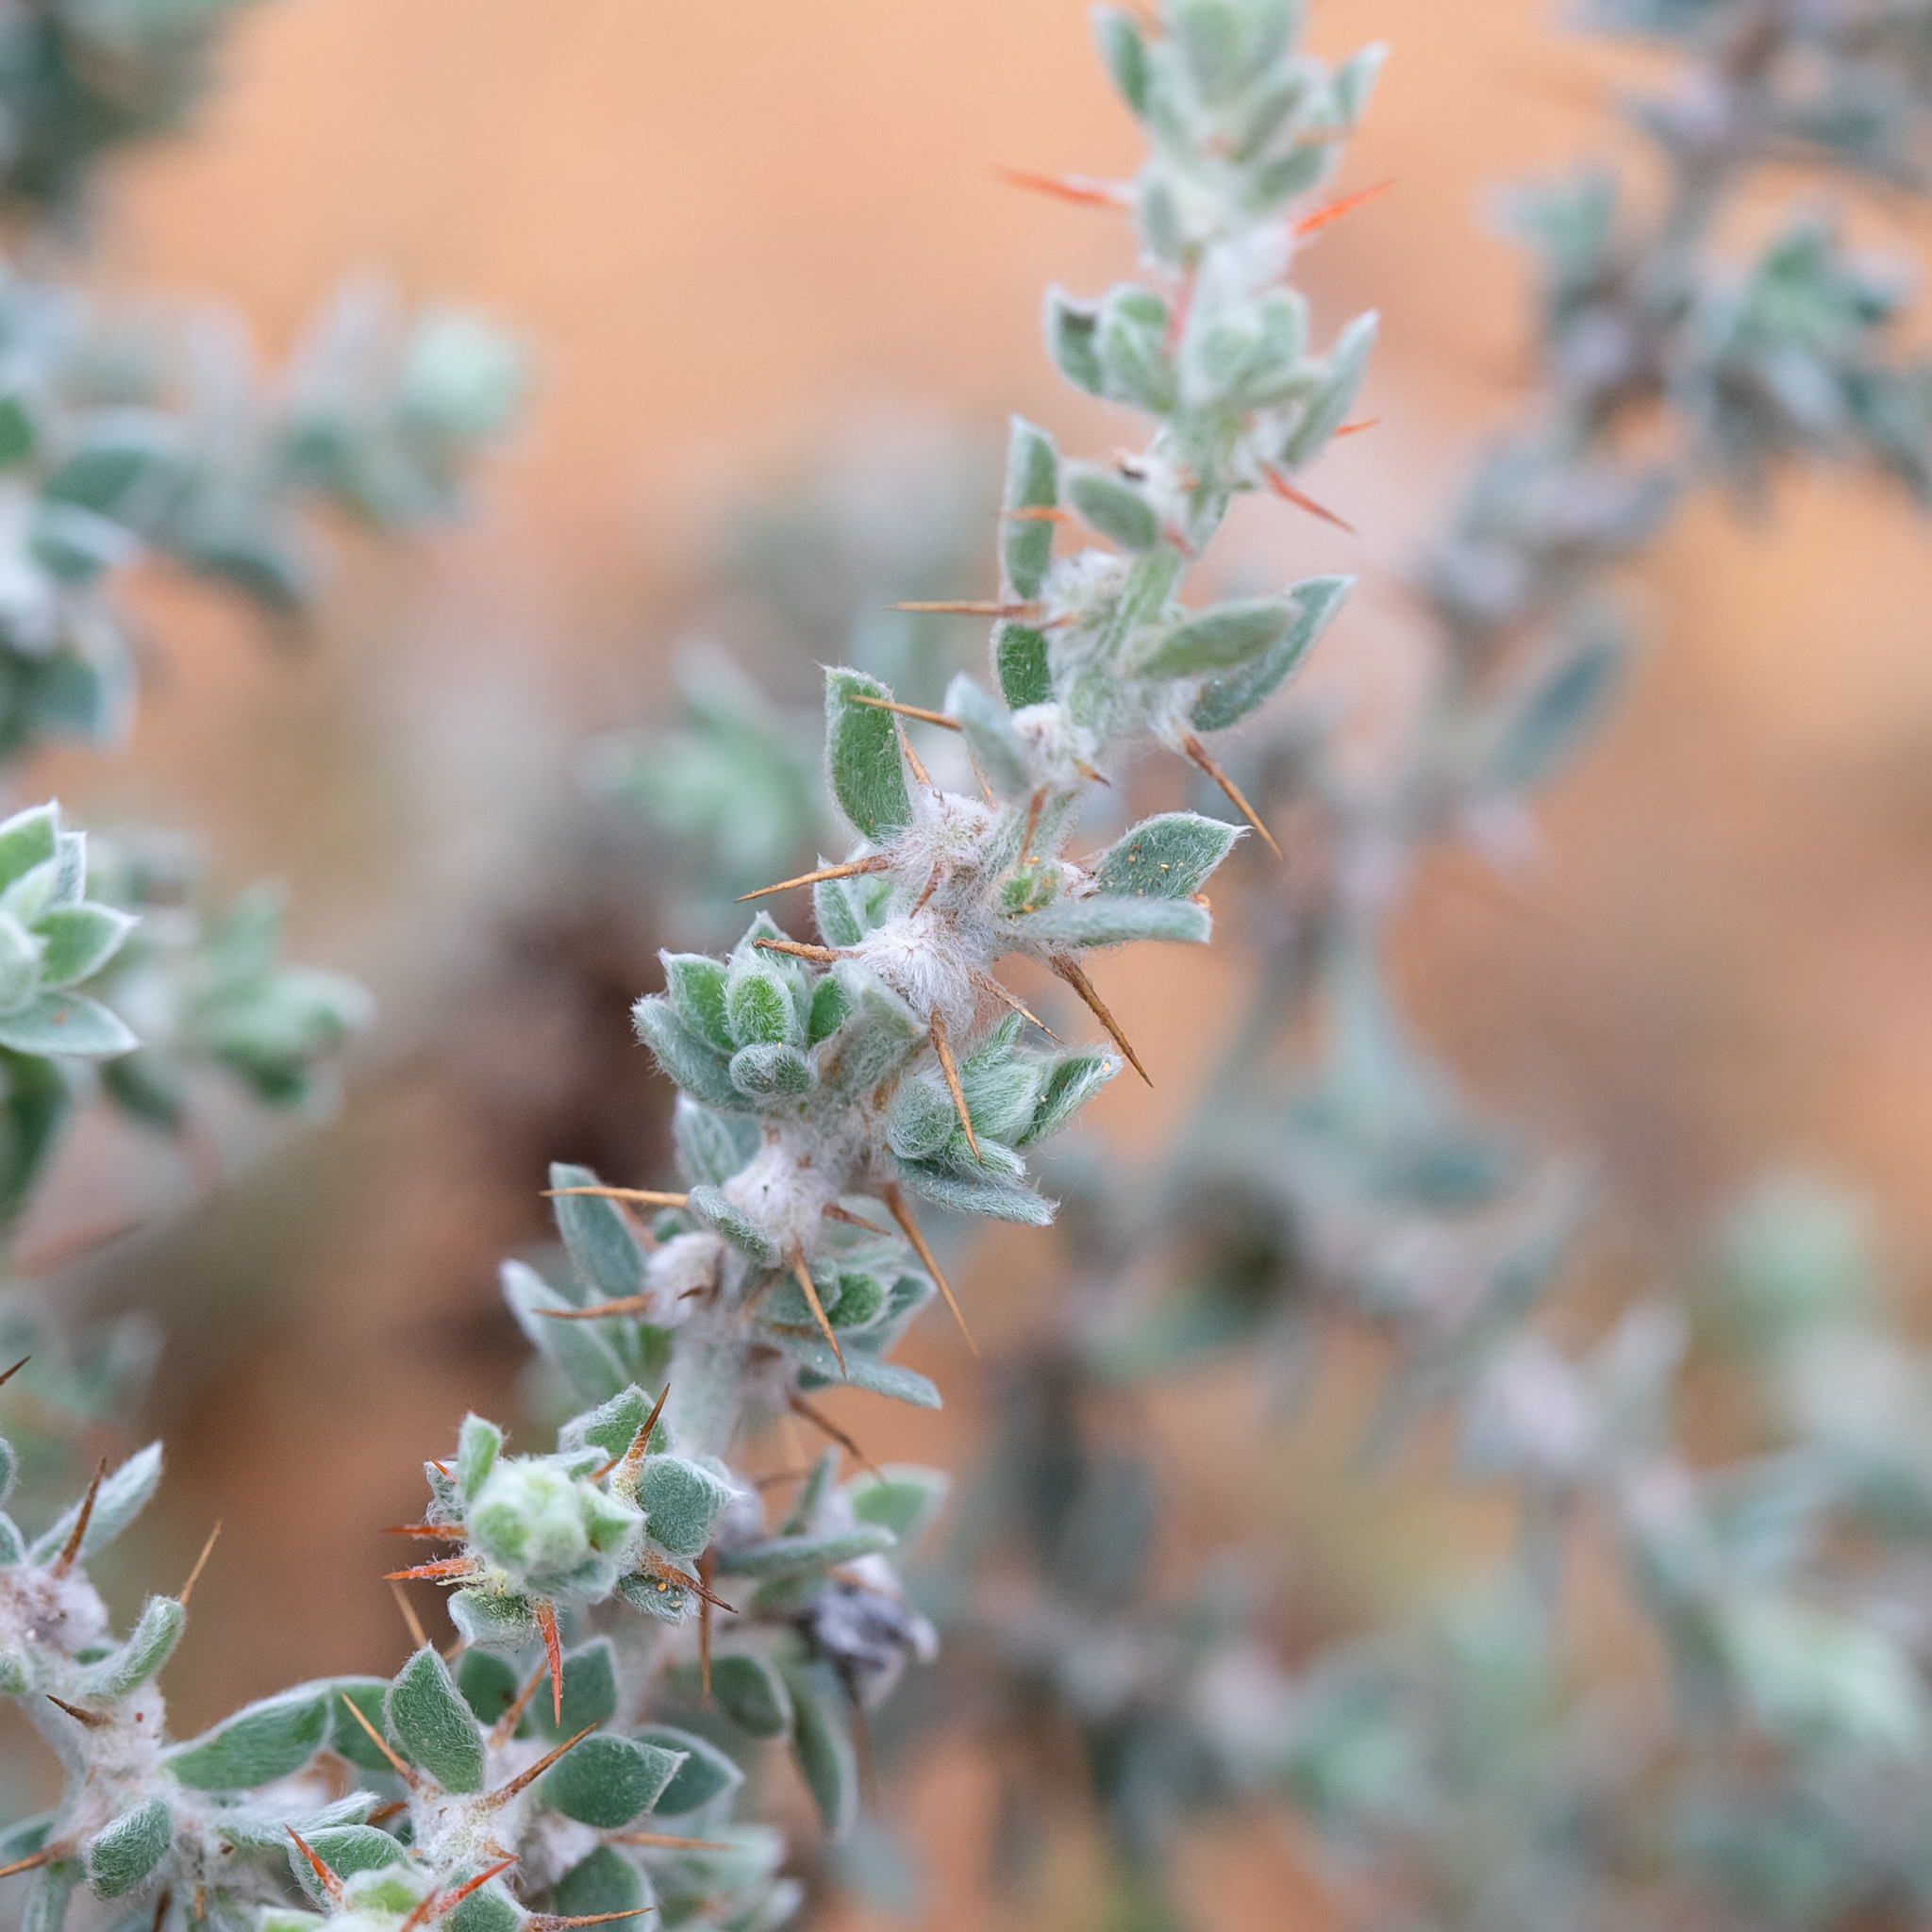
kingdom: Plantae
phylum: Tracheophyta
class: Magnoliopsida
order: Caryophyllales
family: Amaranthaceae
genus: Sclerolaena
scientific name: Sclerolaena birchii
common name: Galvanized bur
